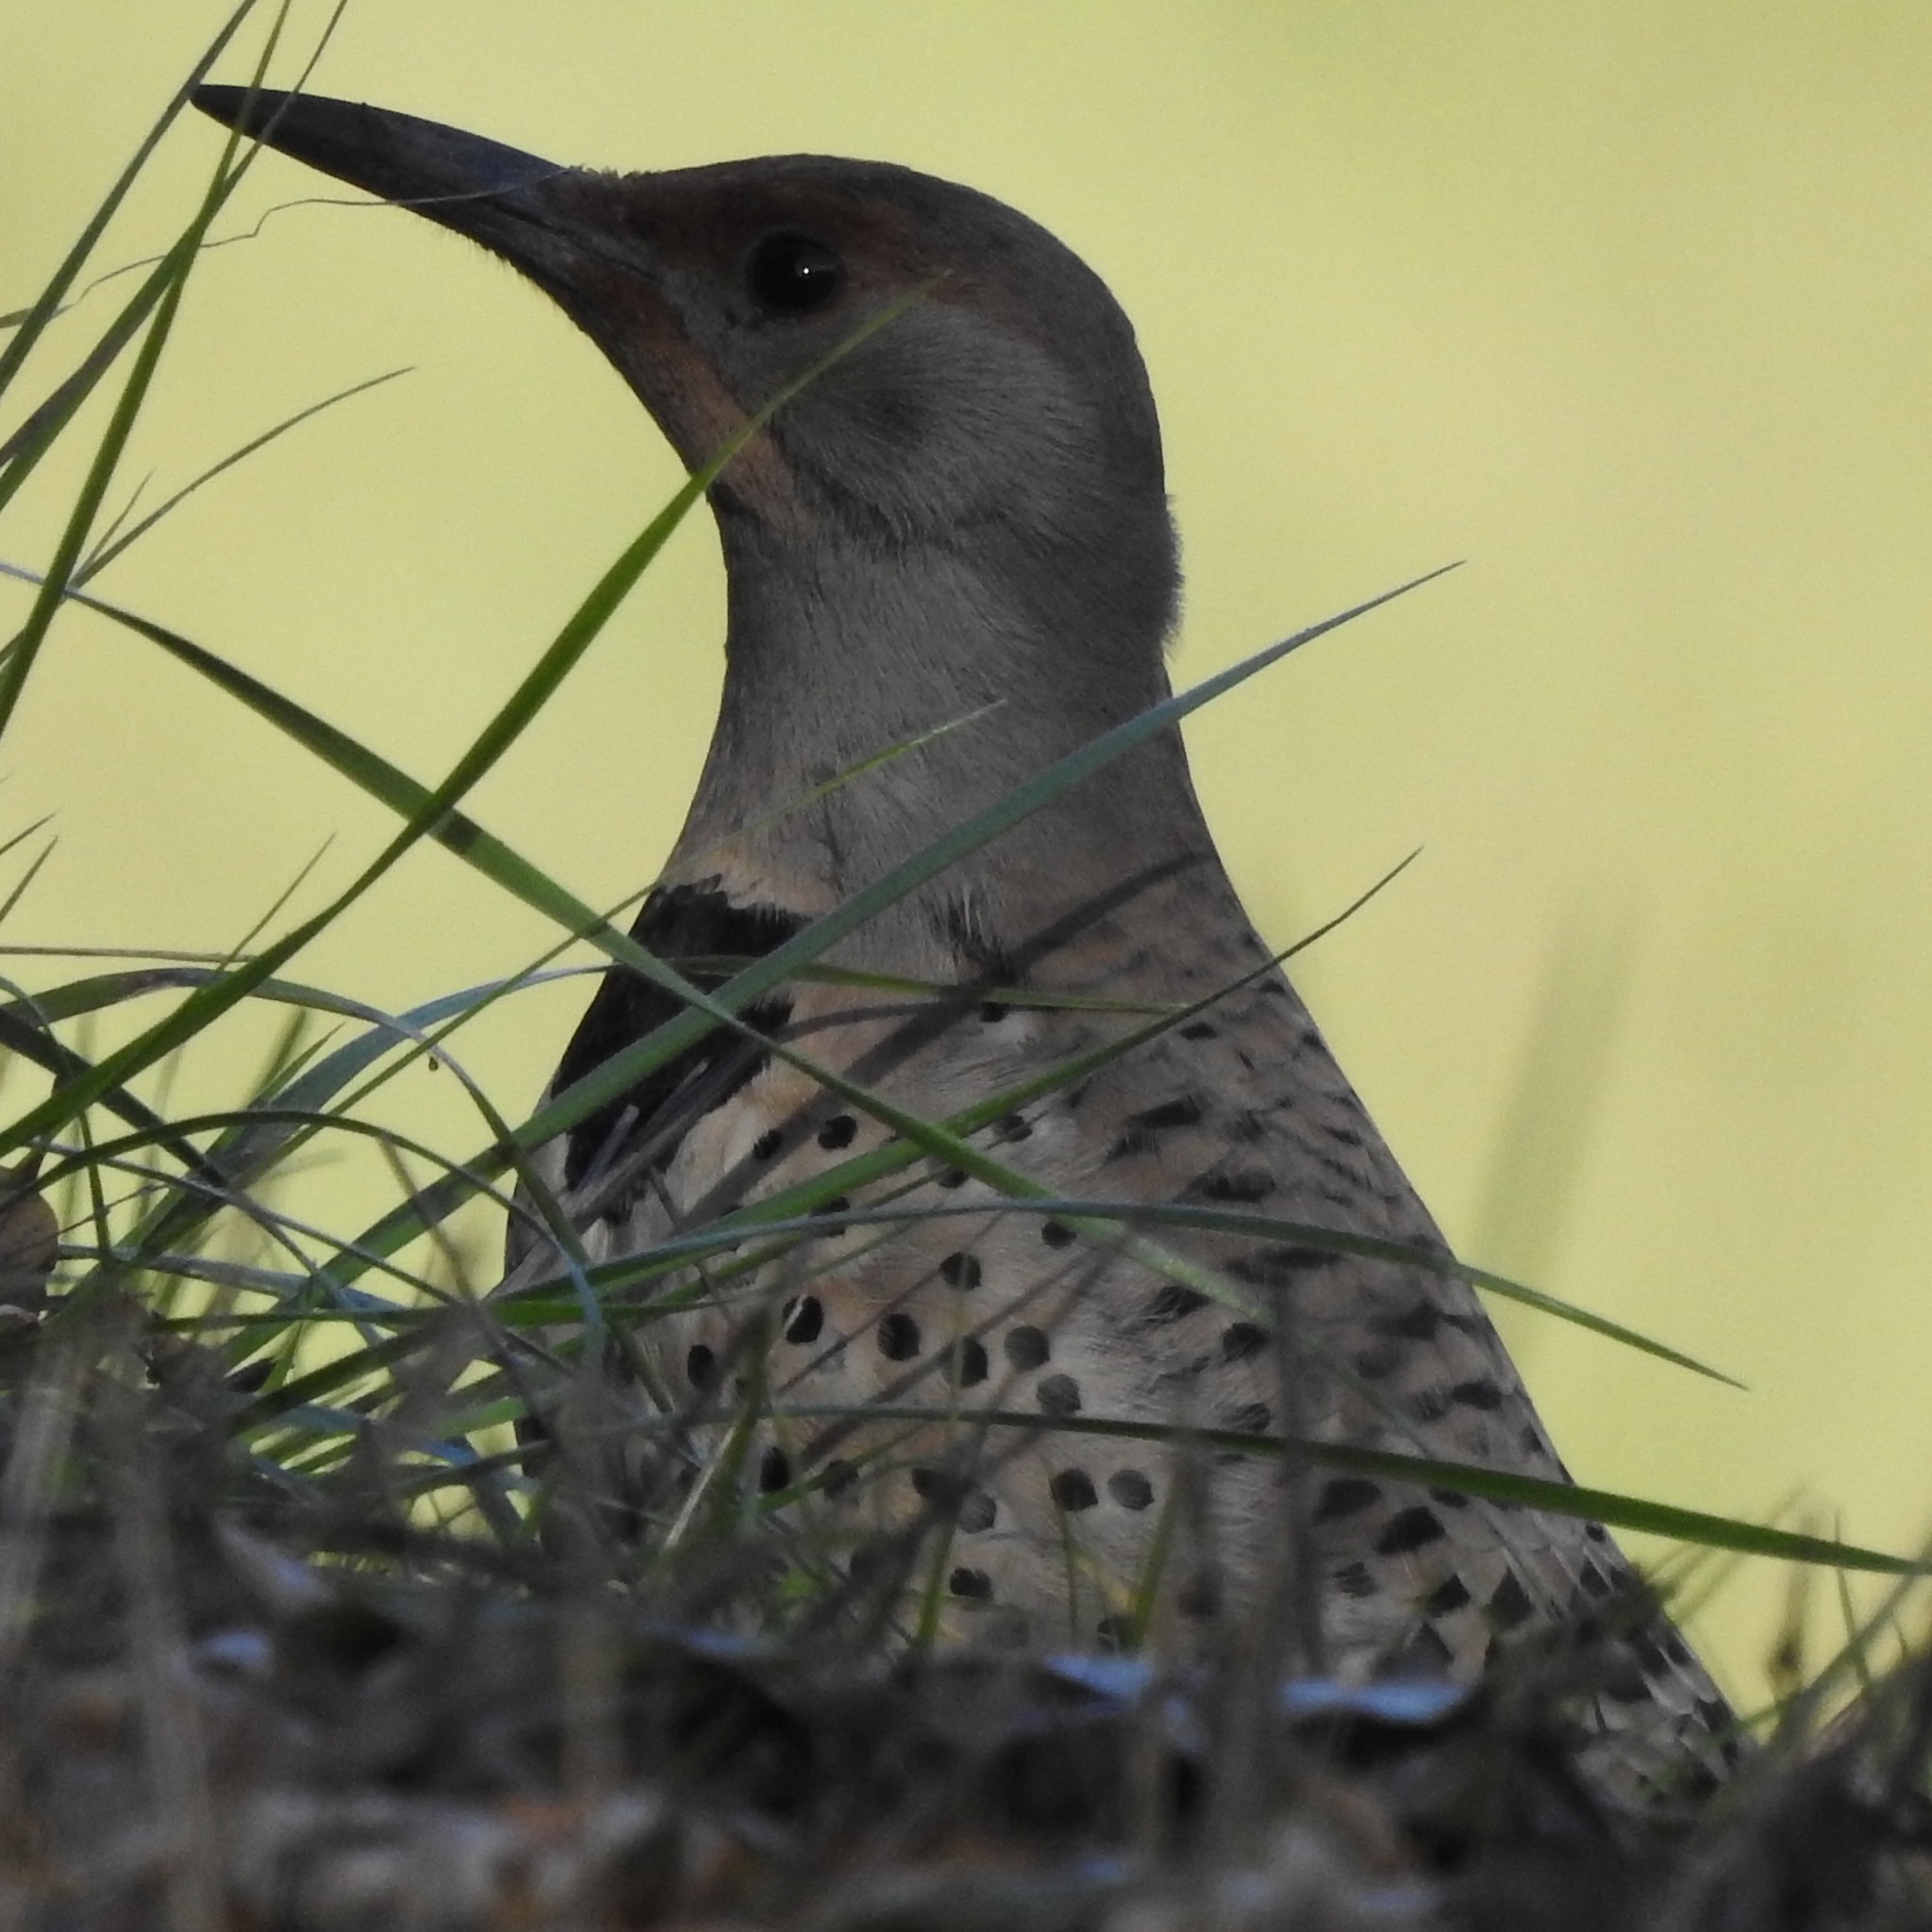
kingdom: Animalia
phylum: Chordata
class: Aves
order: Piciformes
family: Picidae
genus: Colaptes
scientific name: Colaptes auratus
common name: Northern flicker
